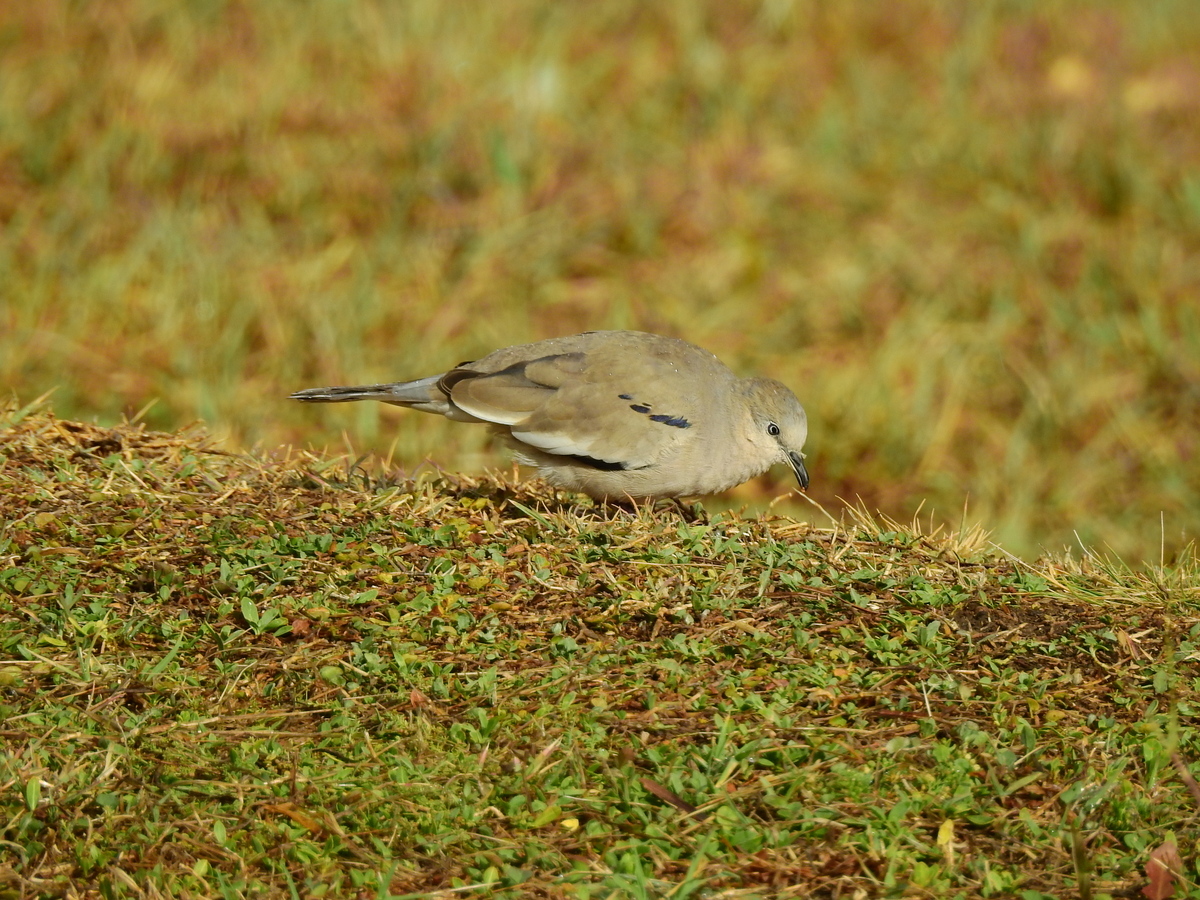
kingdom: Animalia
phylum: Chordata
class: Aves
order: Columbiformes
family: Columbidae
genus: Columbina
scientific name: Columbina picui
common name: Picui ground dove
